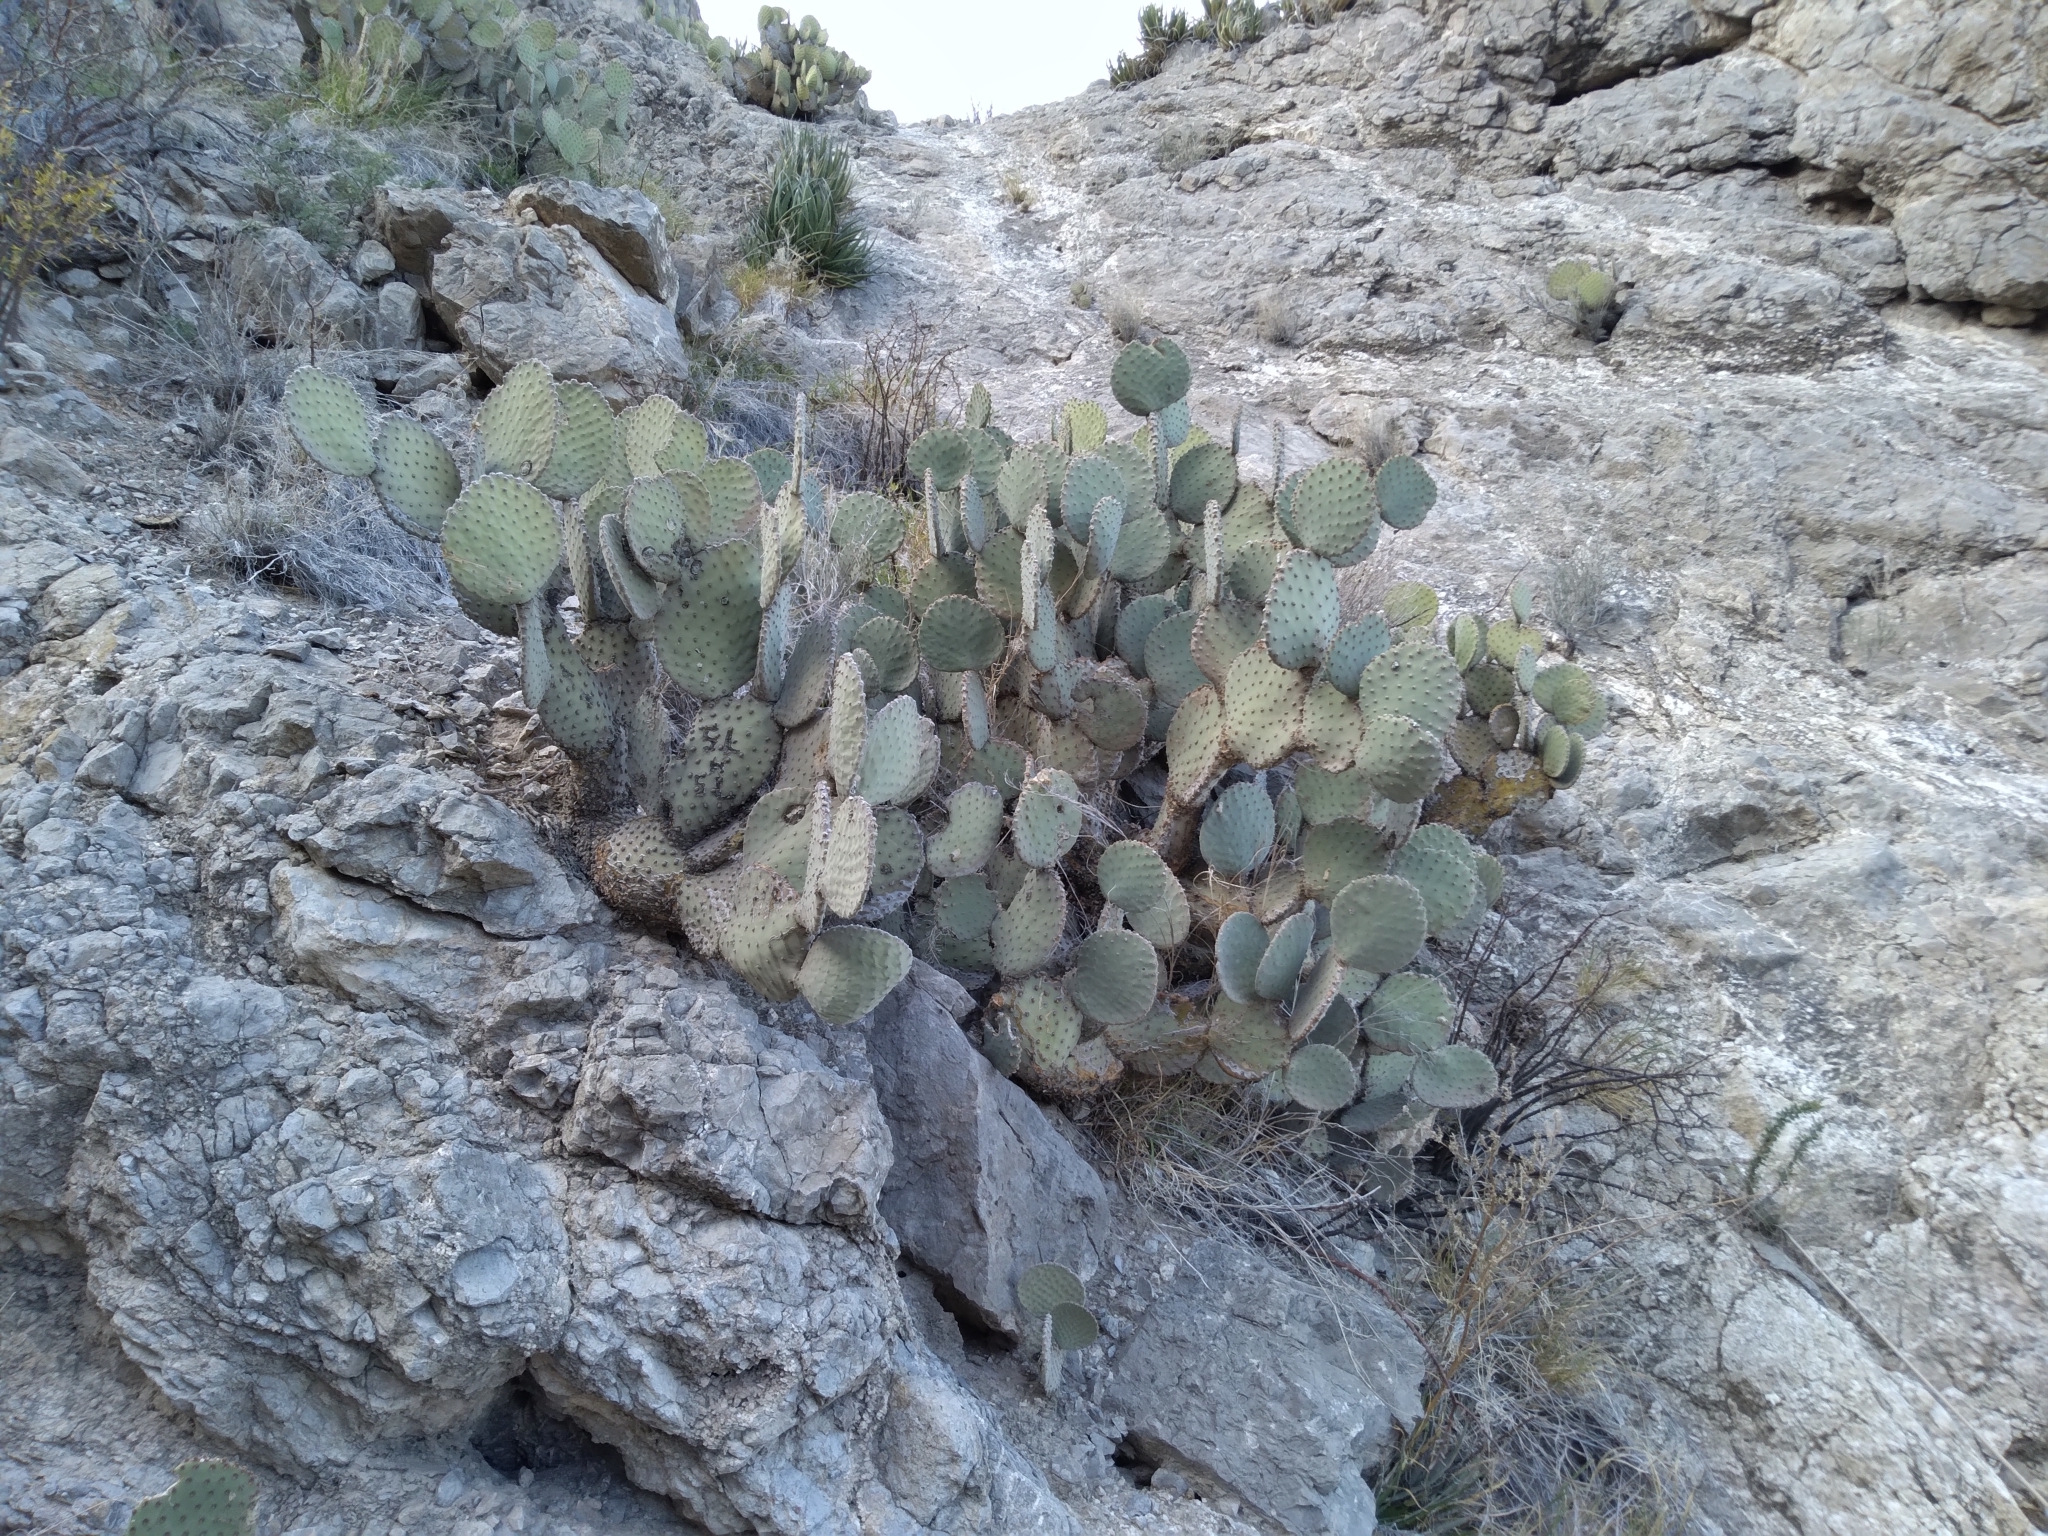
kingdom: Plantae
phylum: Tracheophyta
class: Magnoliopsida
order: Caryophyllales
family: Cactaceae
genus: Opuntia
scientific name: Opuntia rufida
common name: Blind pricklypear
